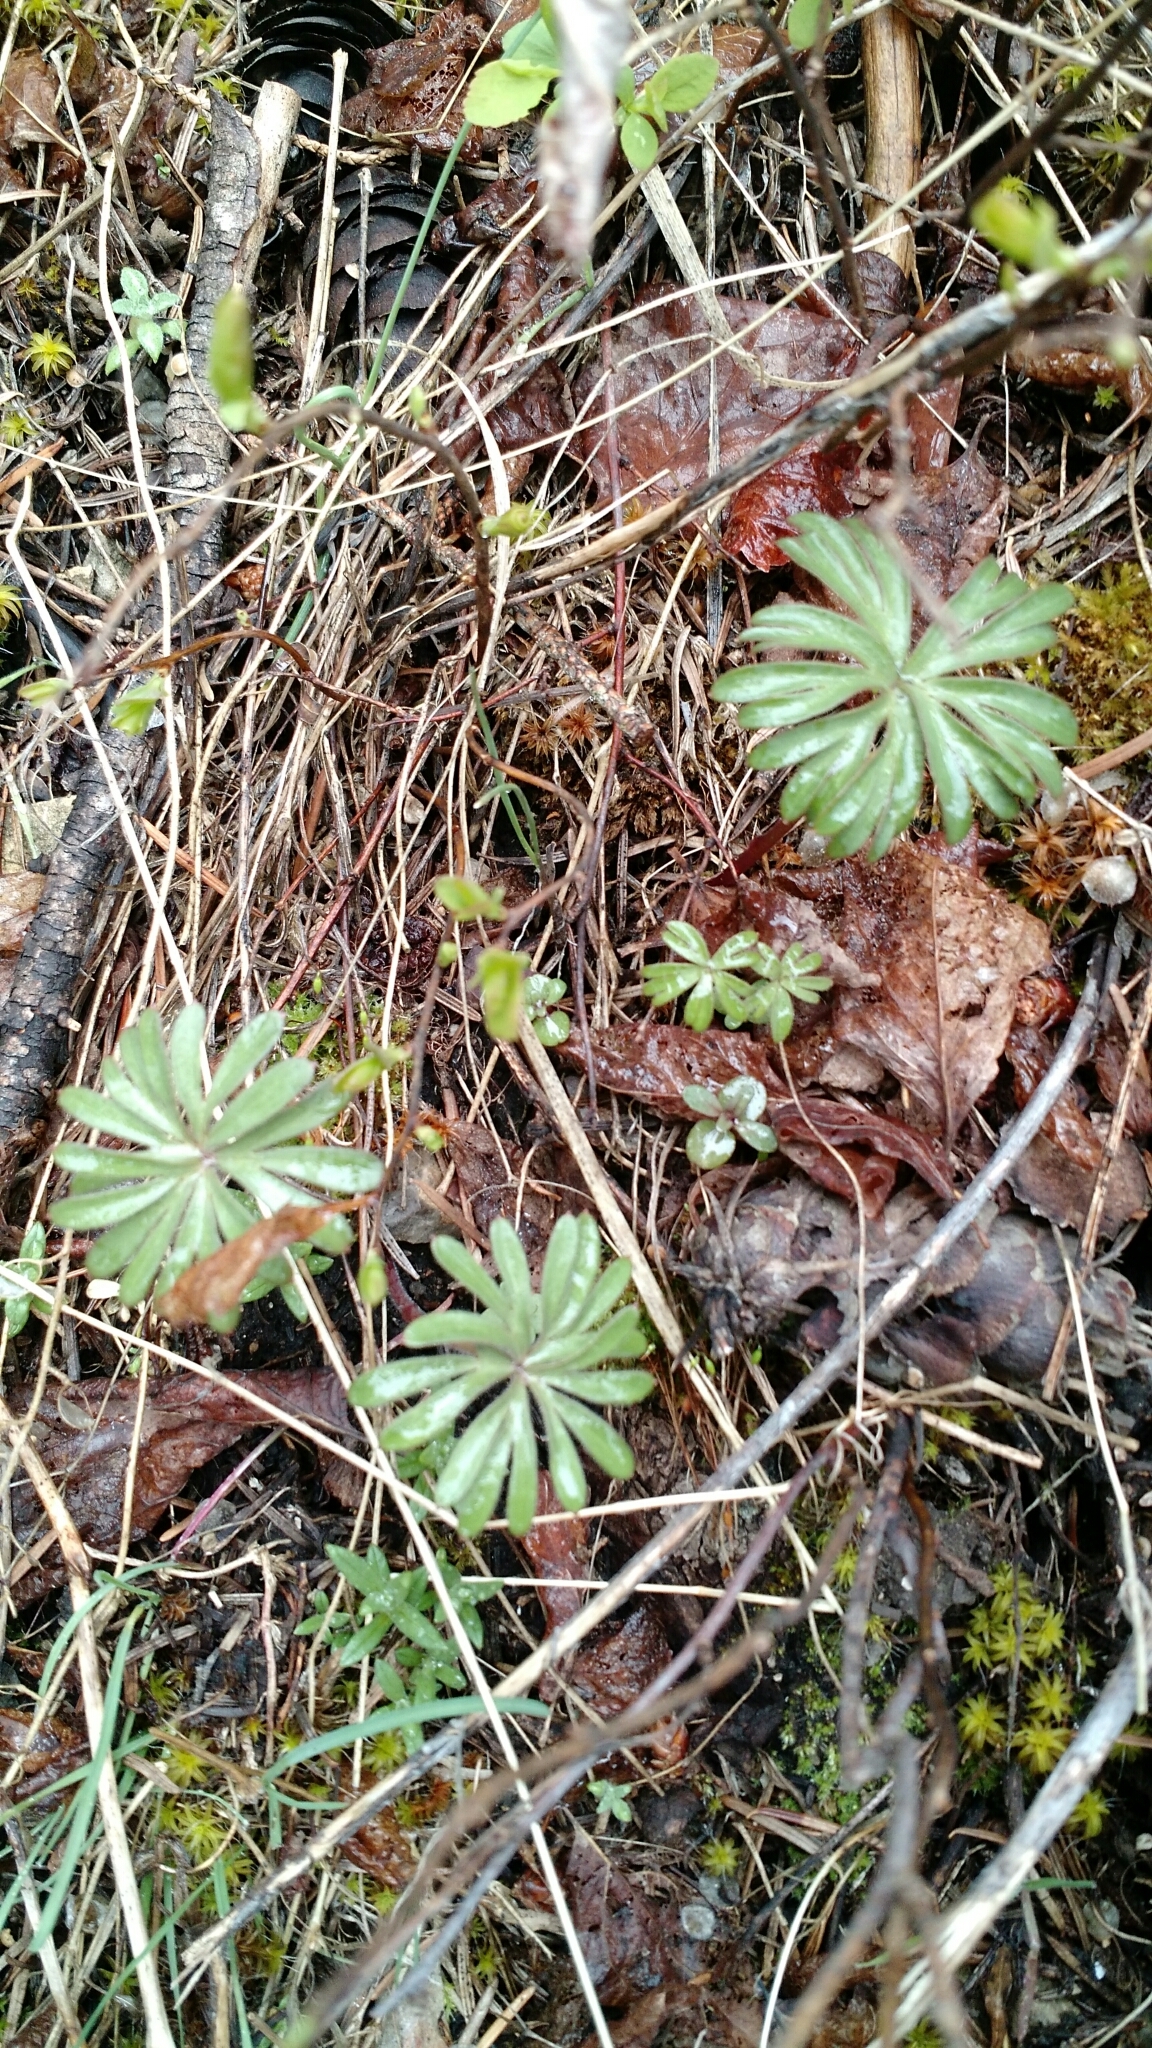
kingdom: Plantae
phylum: Tracheophyta
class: Magnoliopsida
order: Ranunculales
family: Ranunculaceae
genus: Delphinium
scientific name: Delphinium bicolor
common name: Low larkspur
